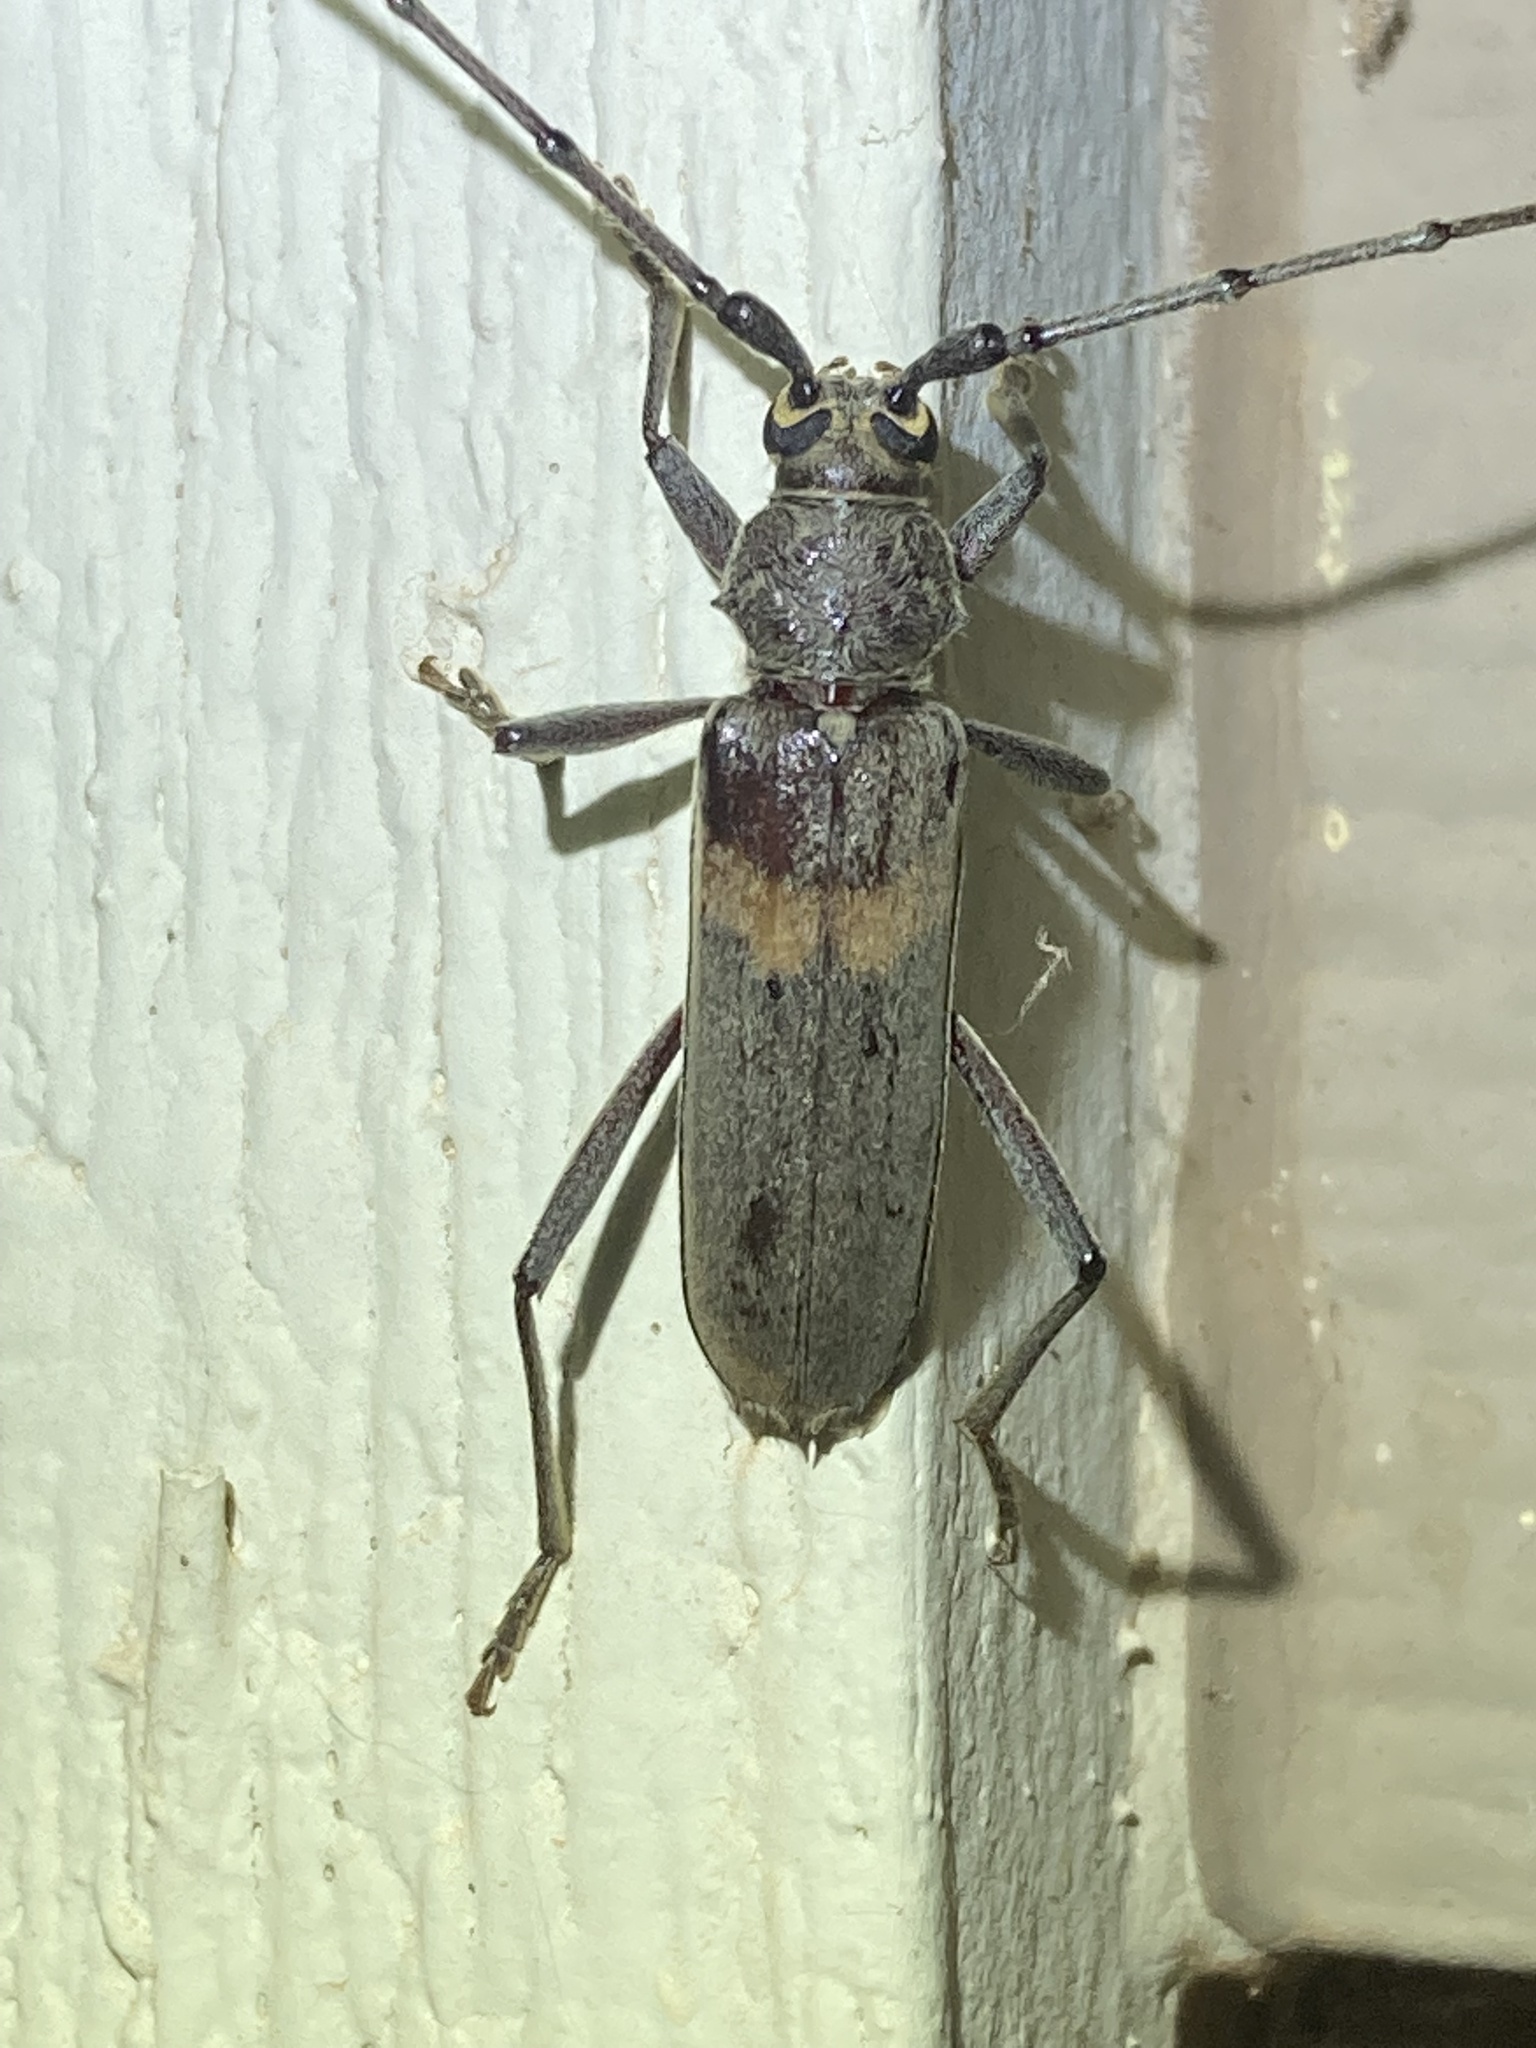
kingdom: Animalia
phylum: Arthropoda
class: Insecta
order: Coleoptera
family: Cerambycidae
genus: Knulliana
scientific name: Knulliana cincta
